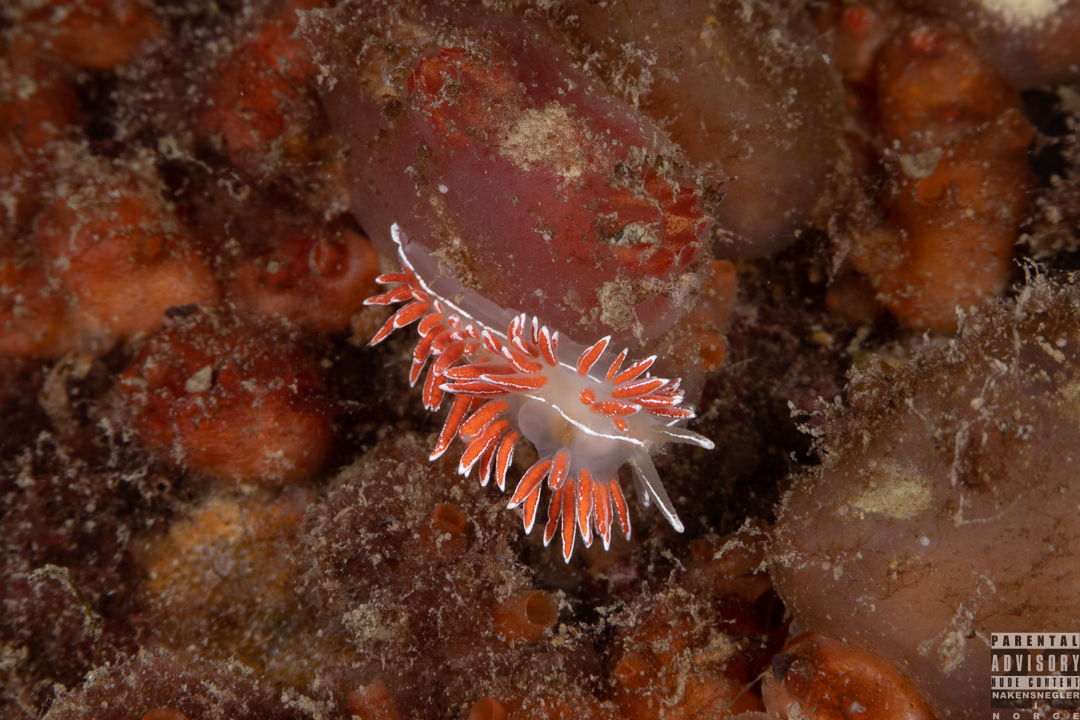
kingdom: Animalia
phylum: Mollusca
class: Gastropoda
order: Nudibranchia
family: Coryphellidae
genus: Coryphella
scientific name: Coryphella lineata
